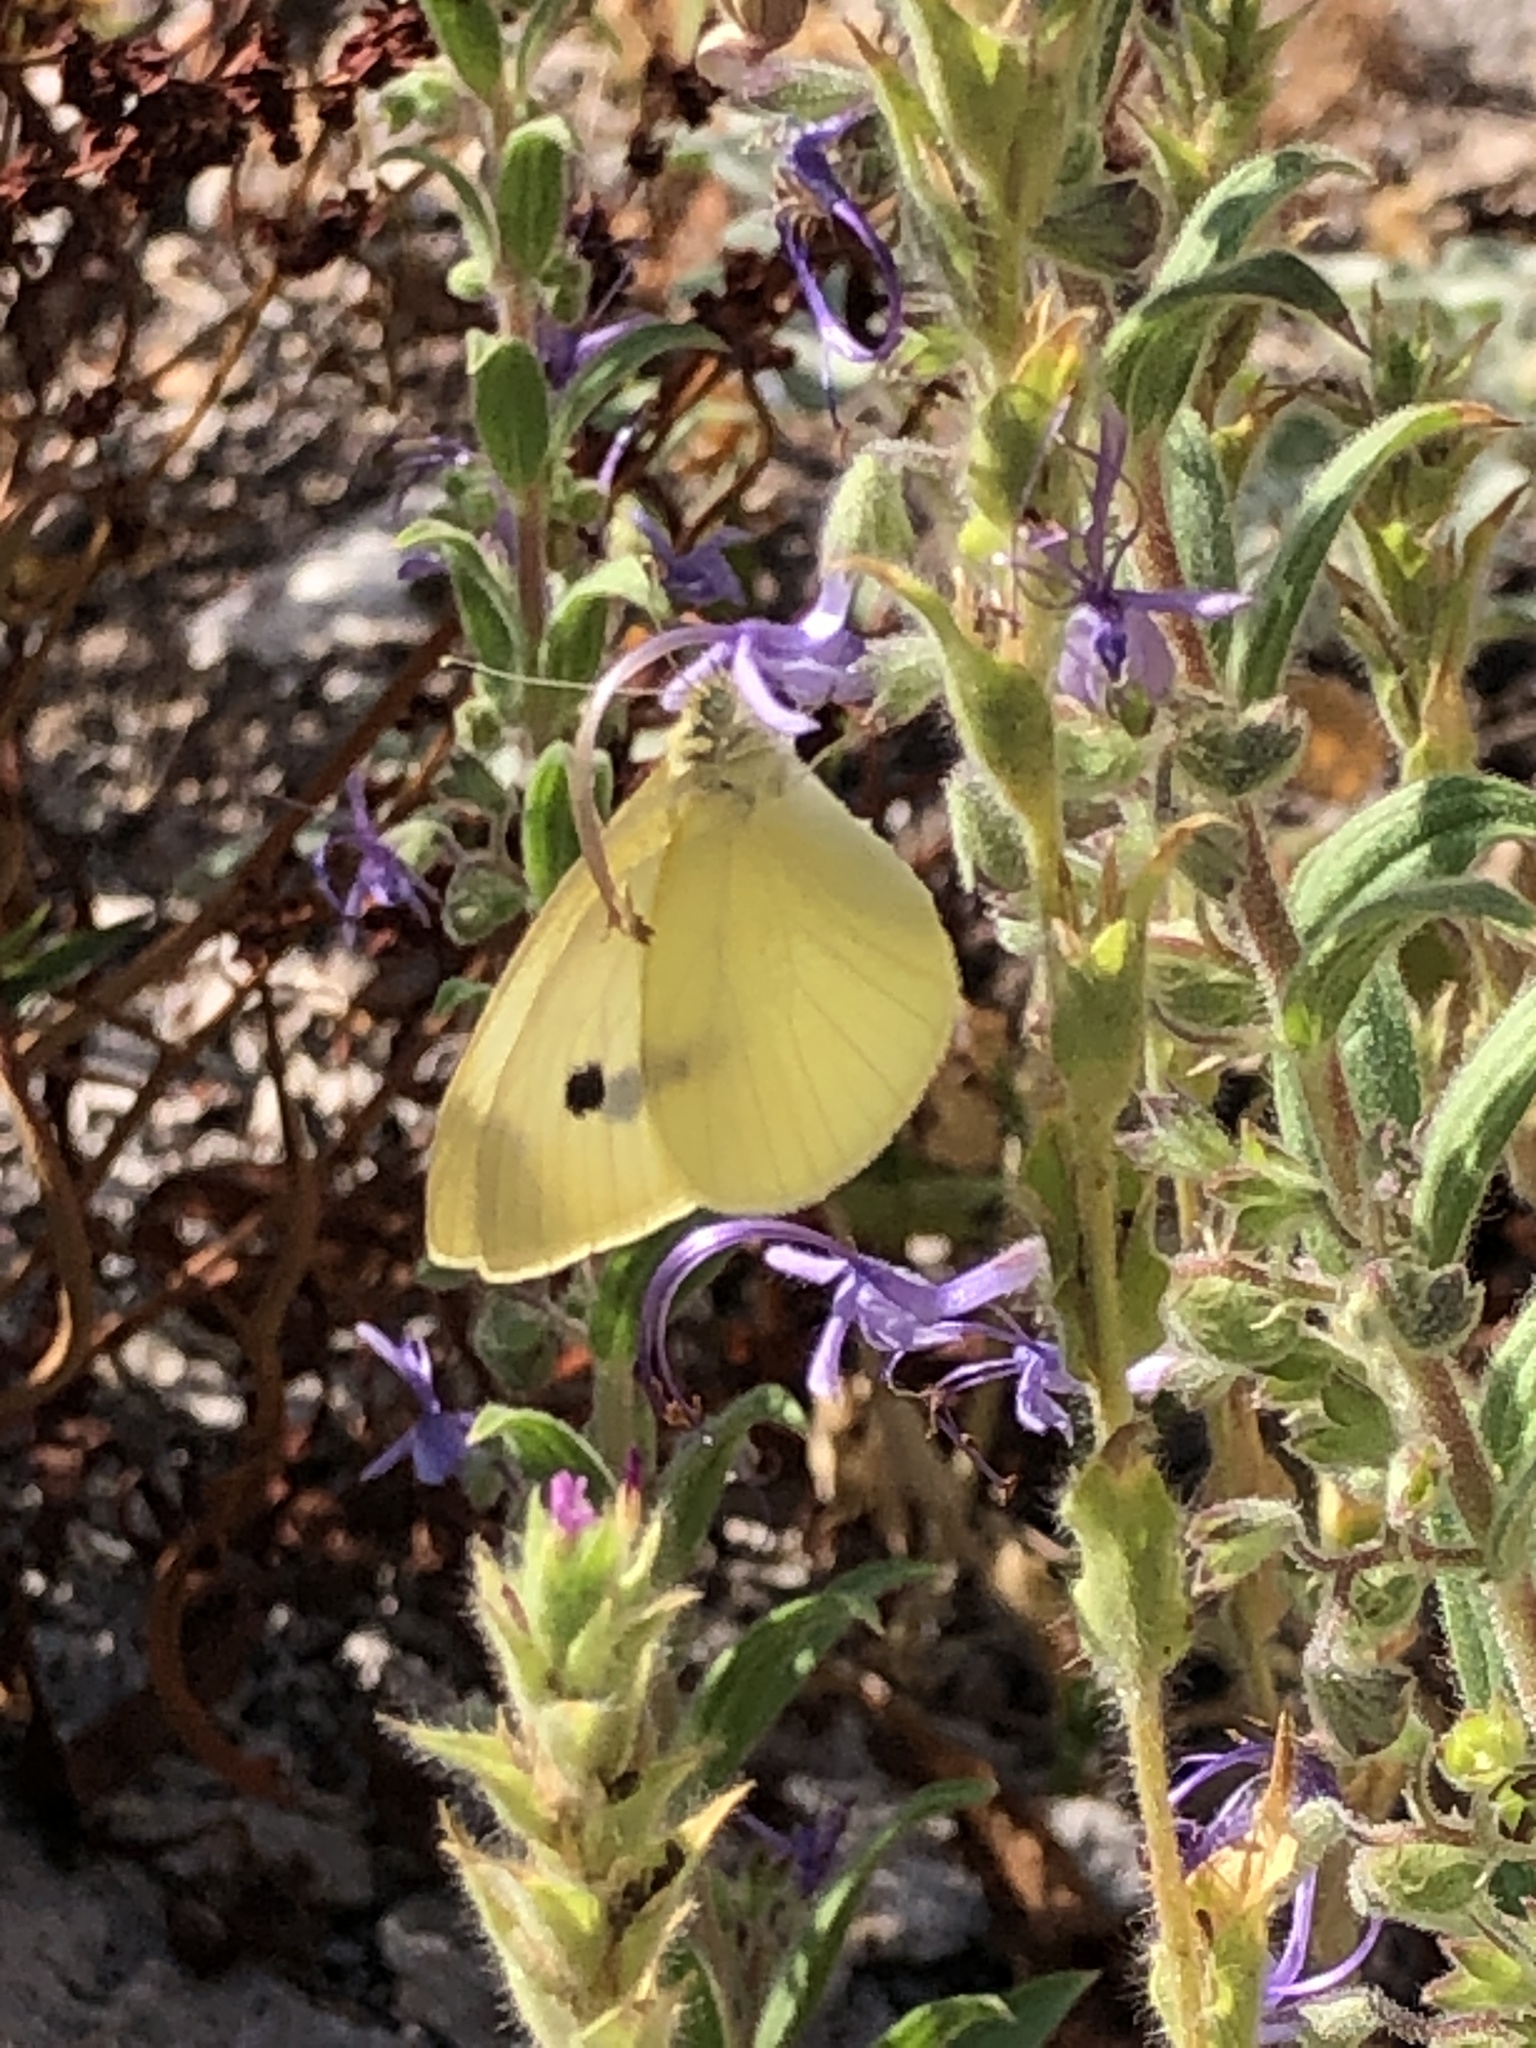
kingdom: Animalia
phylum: Arthropoda
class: Insecta
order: Lepidoptera
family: Pieridae
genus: Pieris
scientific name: Pieris rapae
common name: Small white
